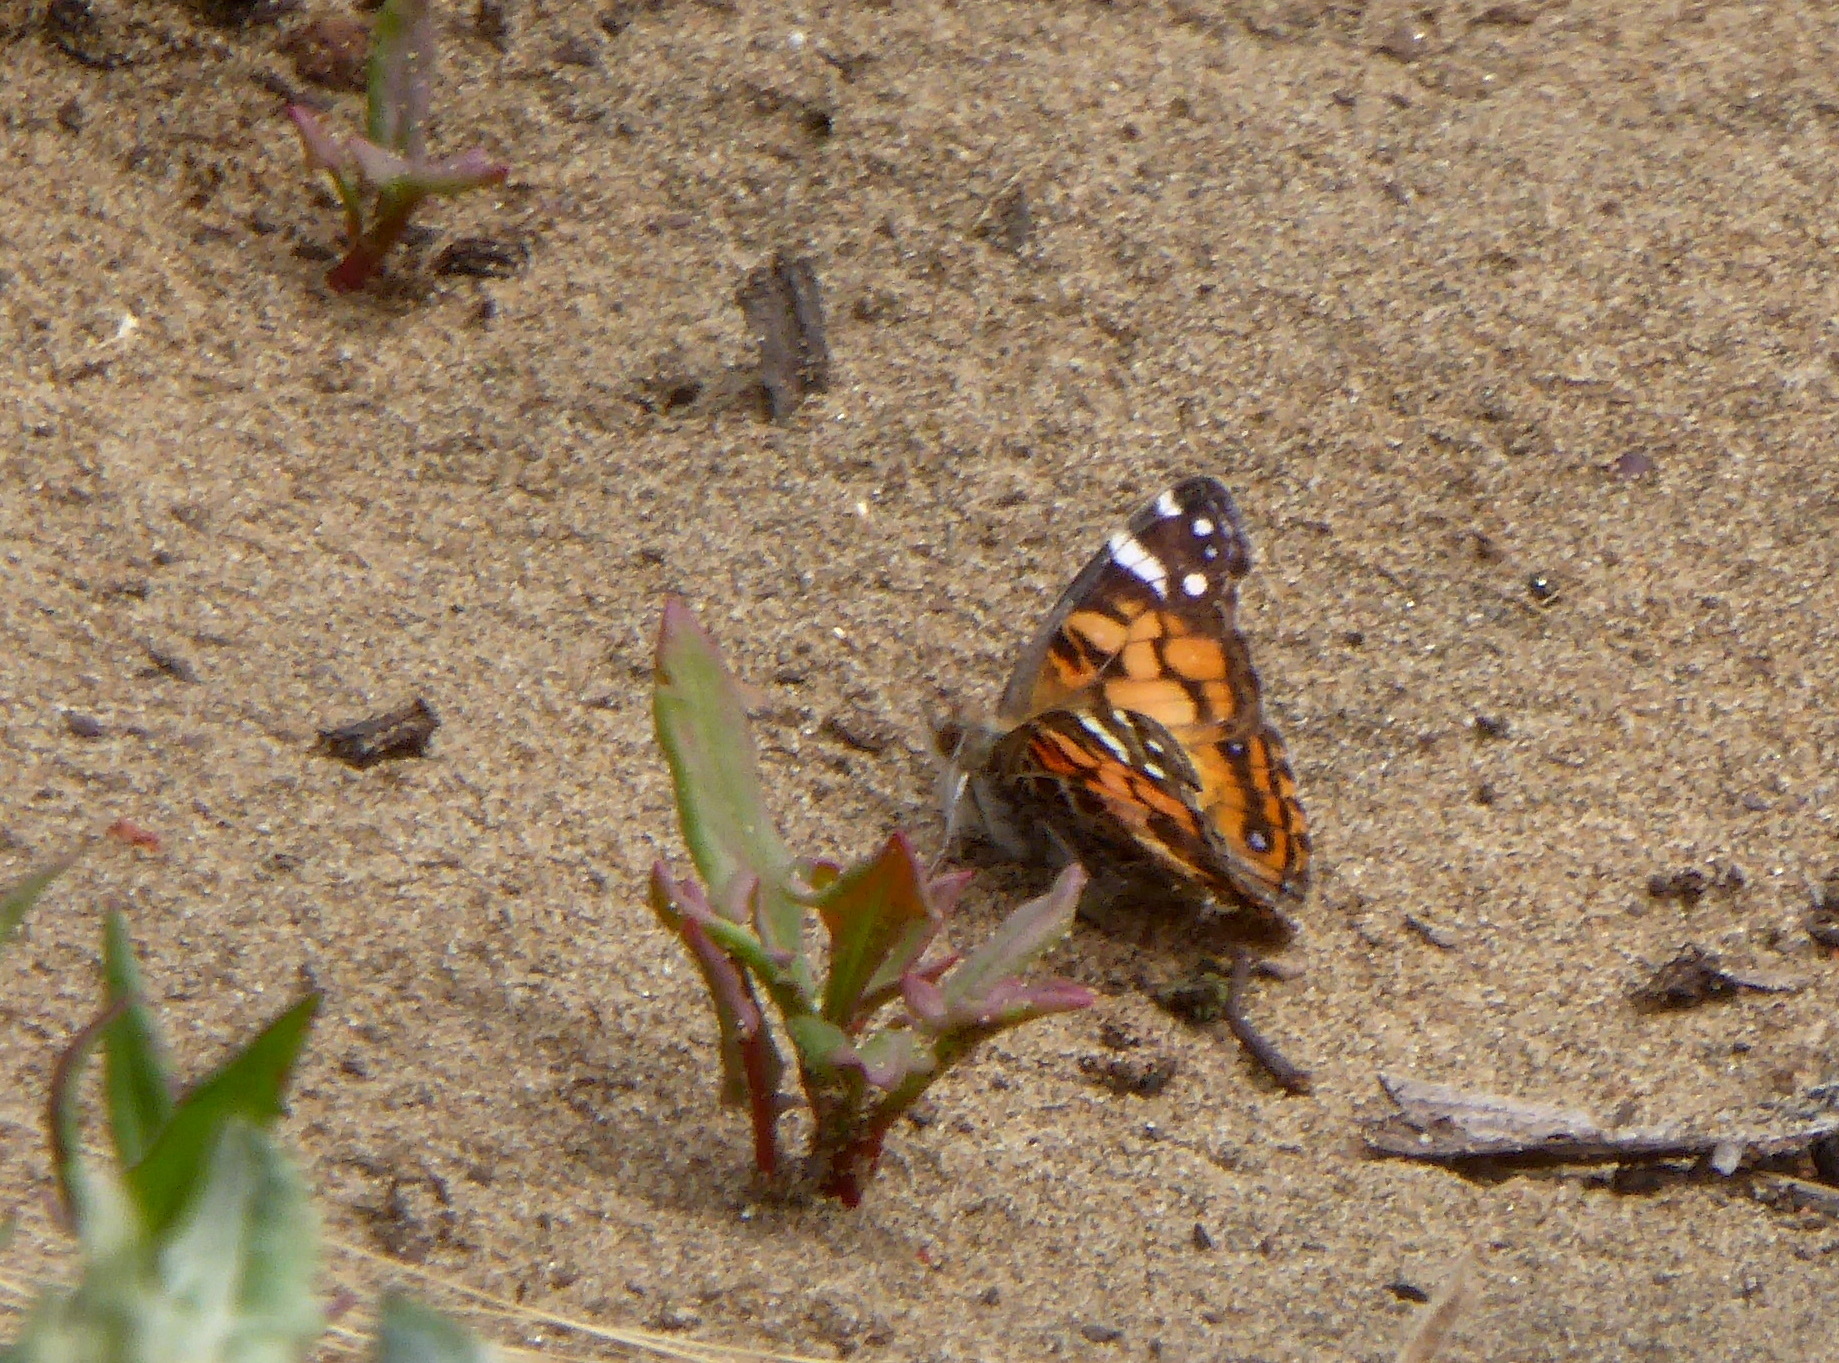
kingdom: Animalia
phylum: Arthropoda
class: Insecta
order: Lepidoptera
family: Nymphalidae
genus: Vanessa
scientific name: Vanessa virginiensis
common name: American lady
